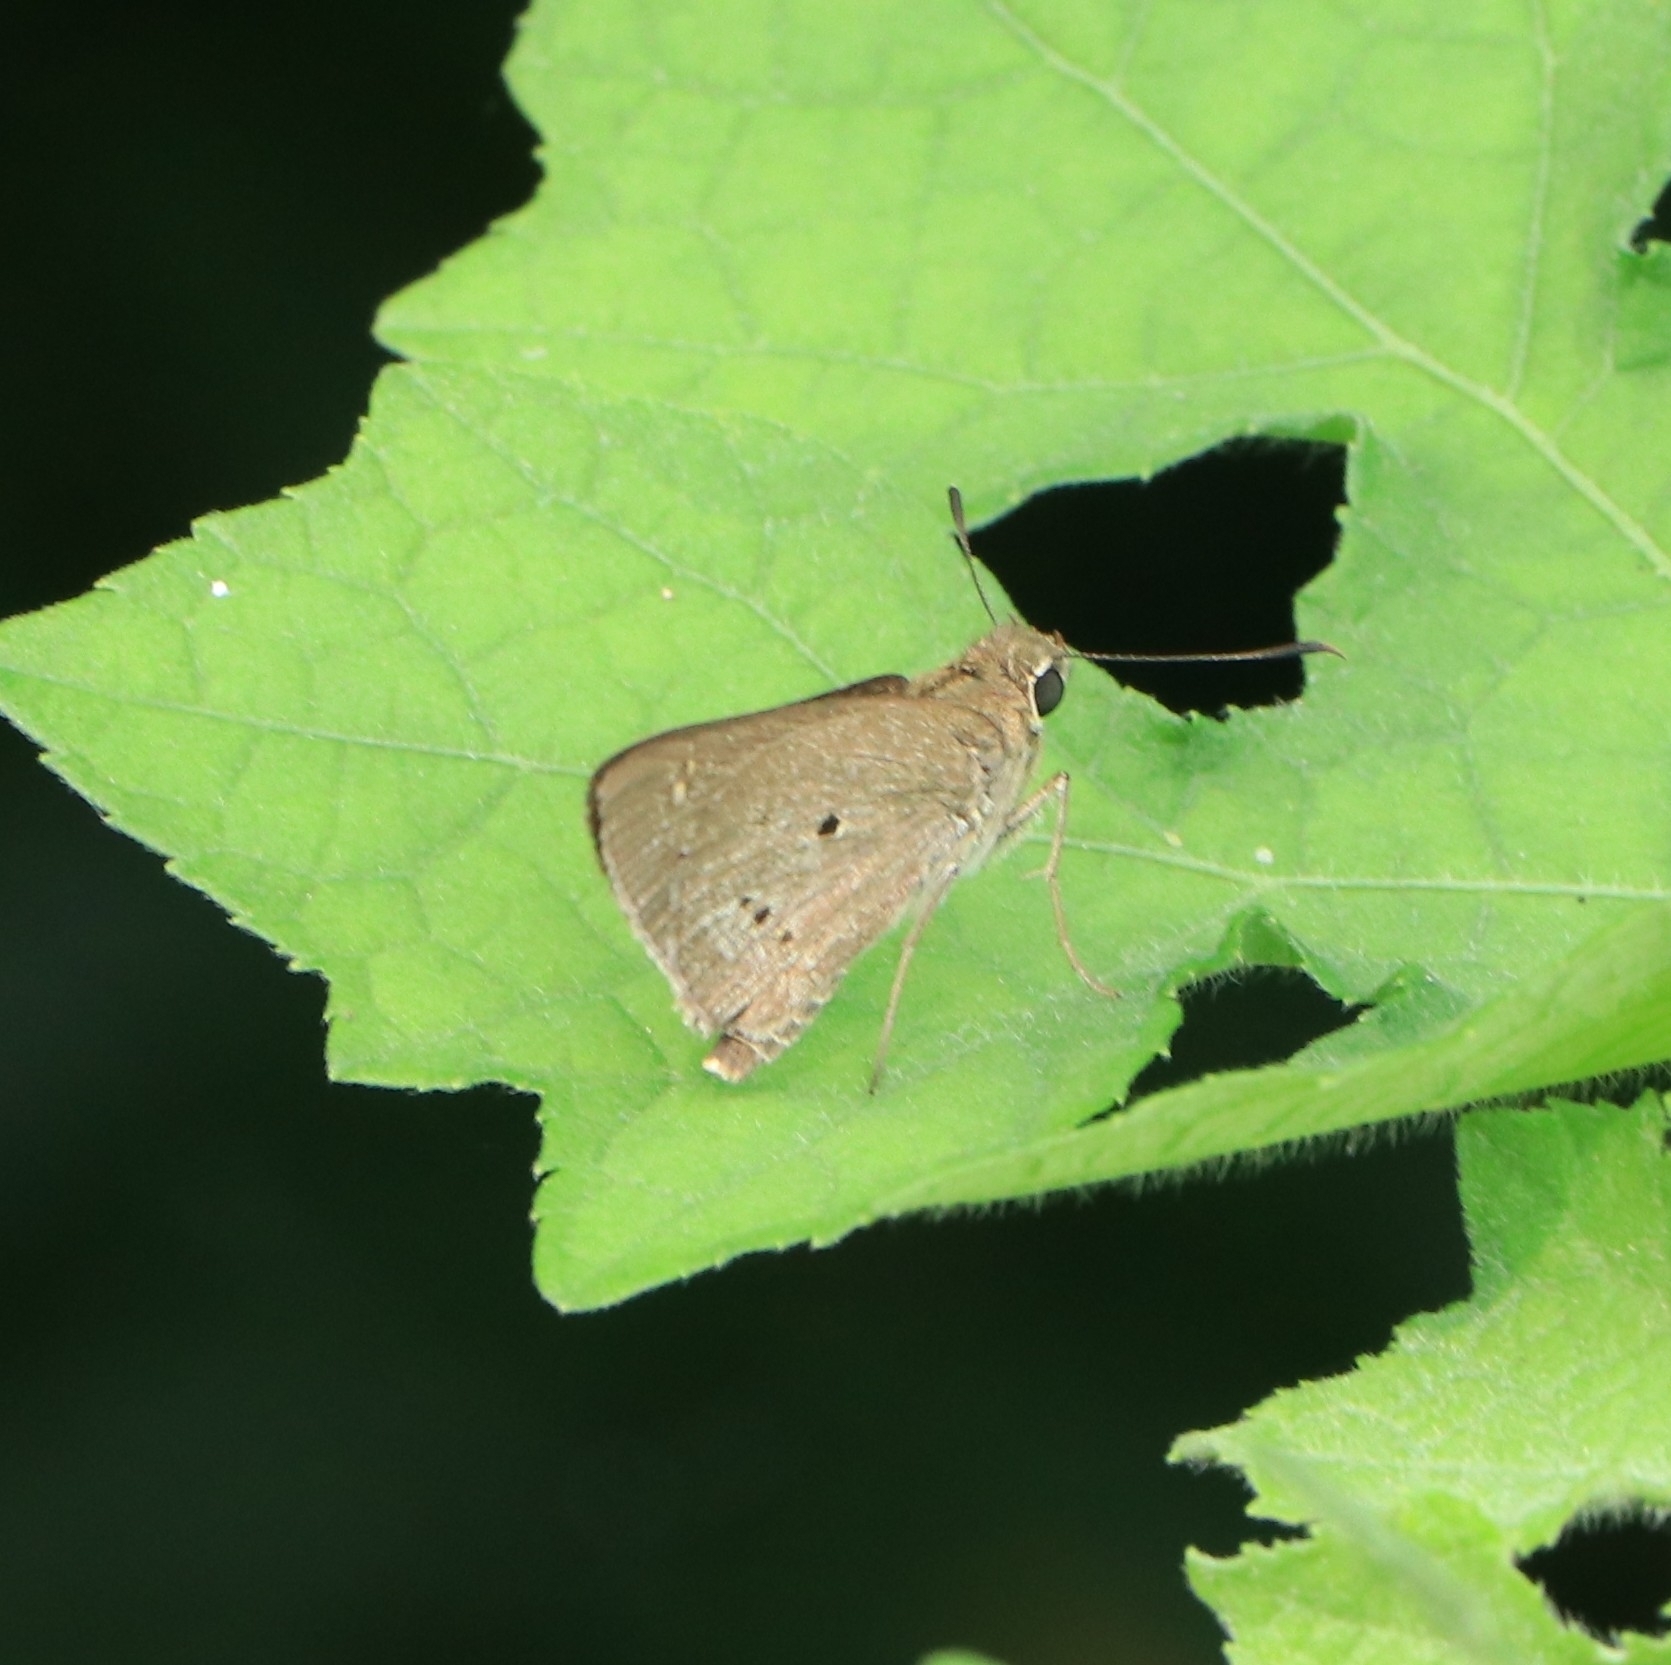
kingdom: Animalia
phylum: Arthropoda
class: Insecta
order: Lepidoptera
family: Hesperiidae
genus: Suastus
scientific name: Suastus gremius
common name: Indian palm bob
